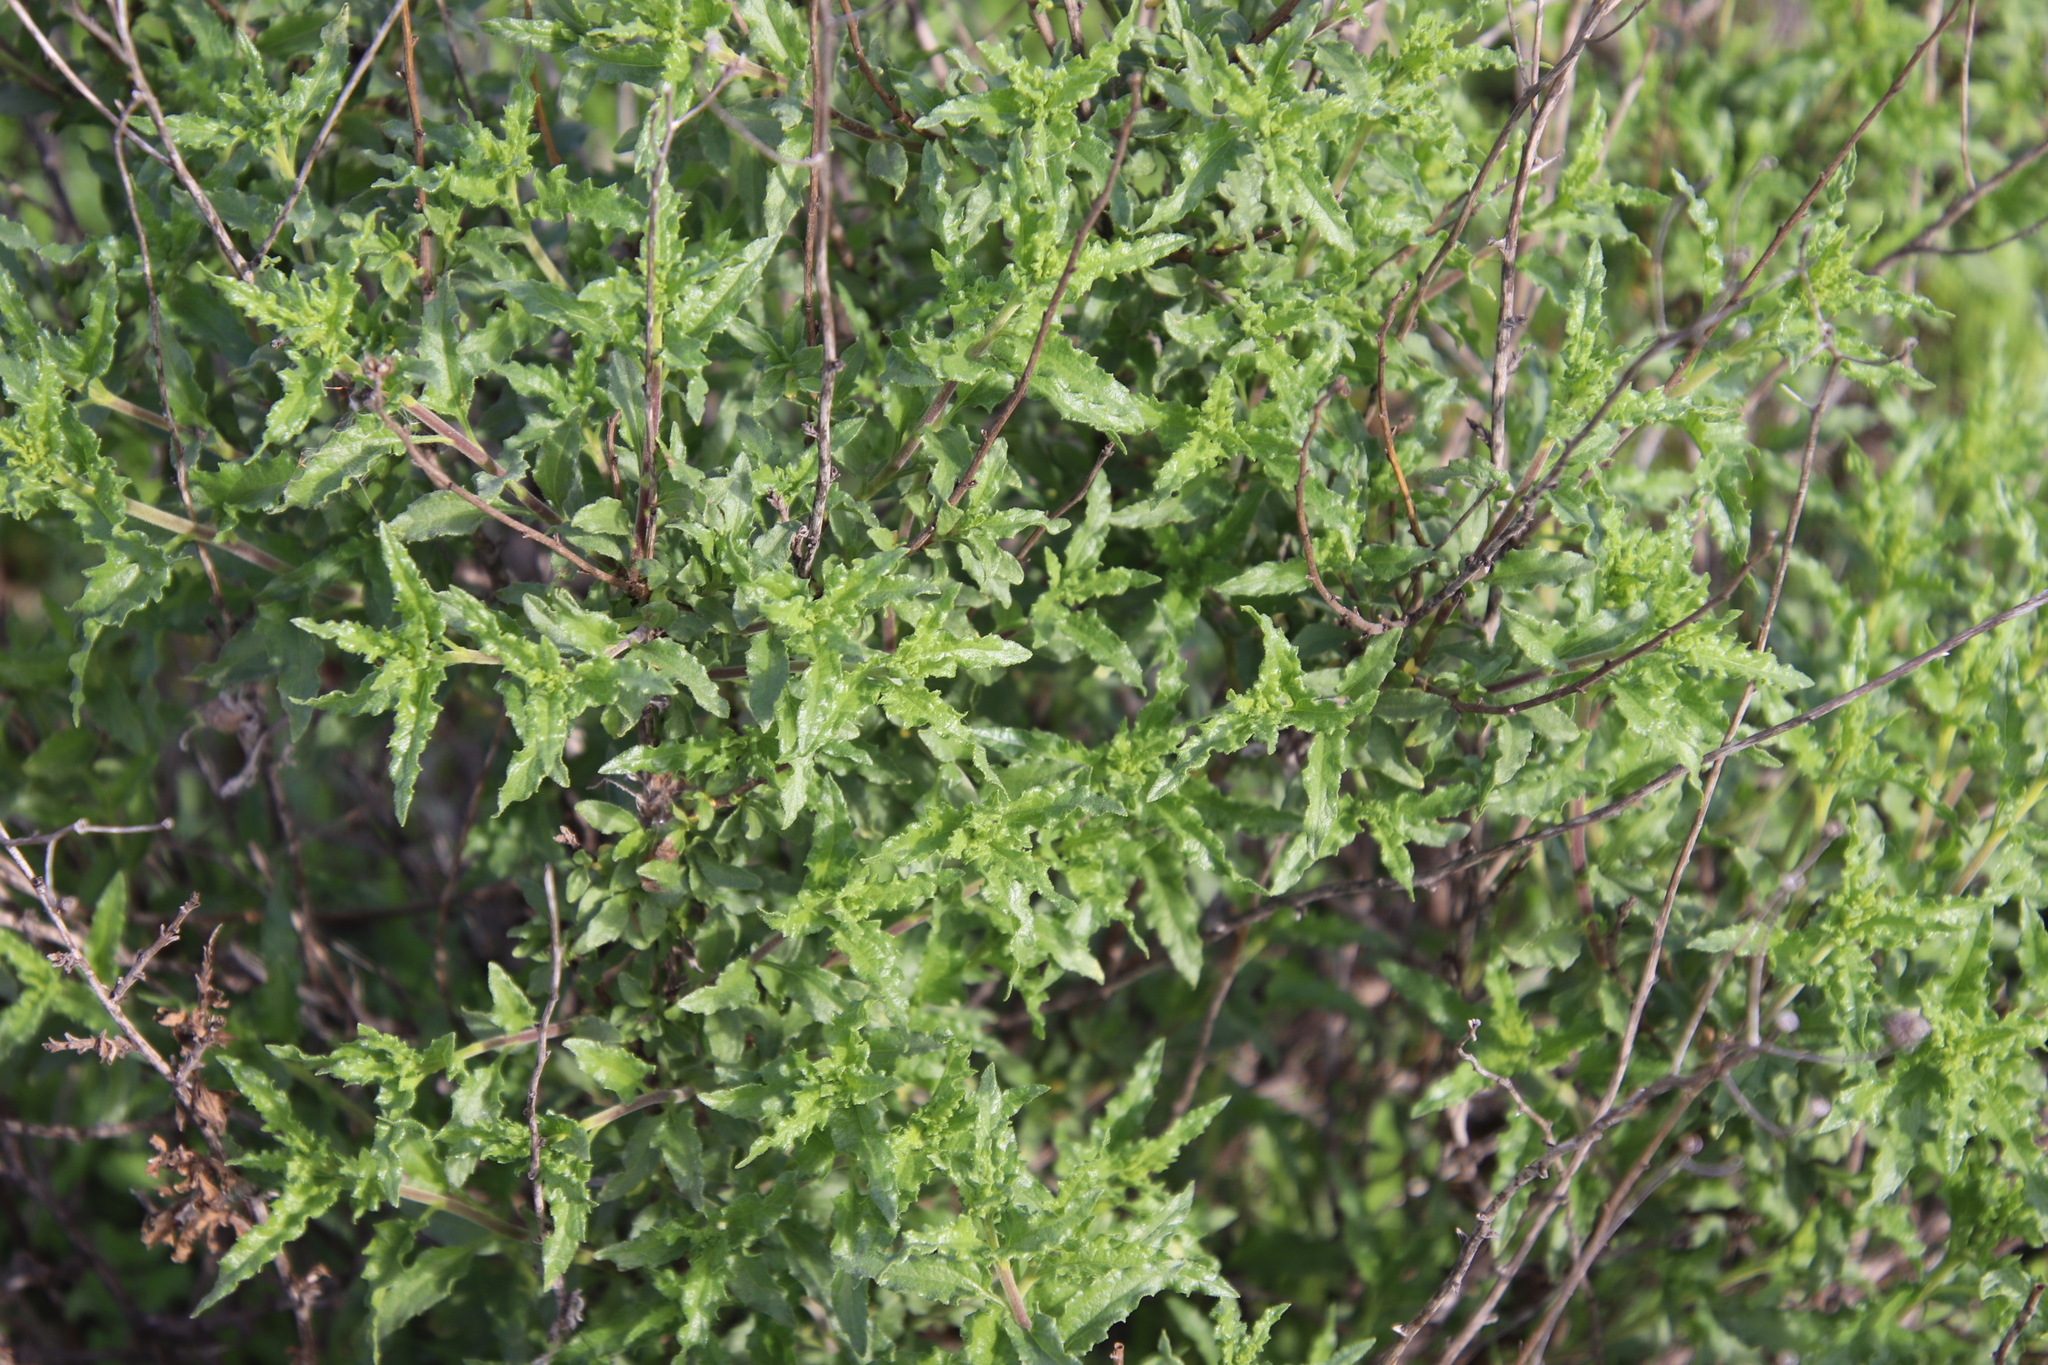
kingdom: Plantae
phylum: Tracheophyta
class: Magnoliopsida
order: Asterales
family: Asteraceae
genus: Bahiopsis
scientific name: Bahiopsis laciniata
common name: San diego county viguiera
